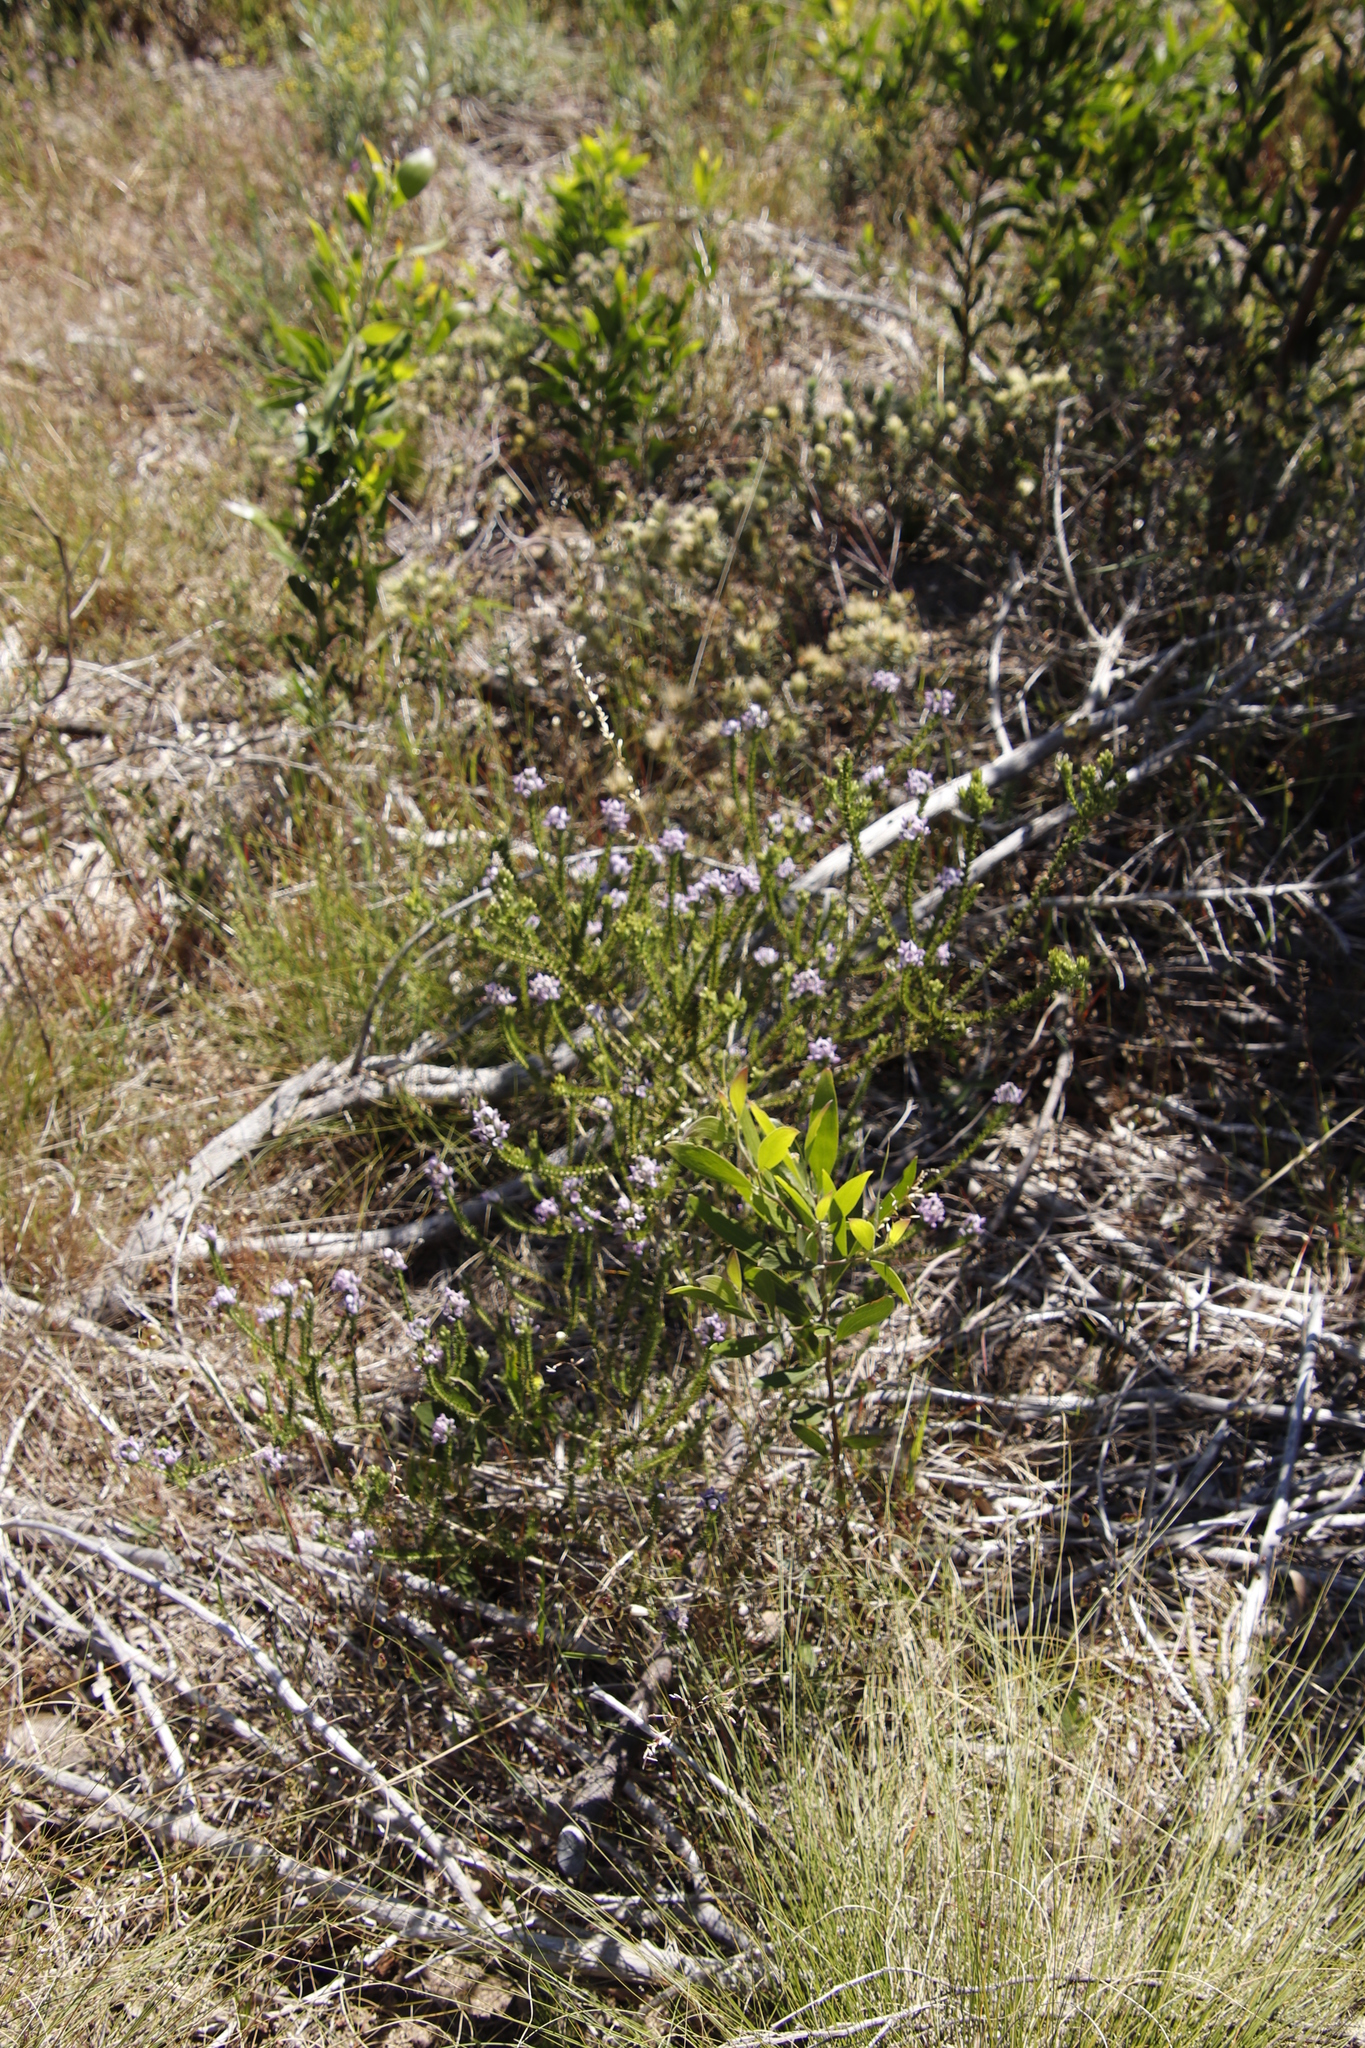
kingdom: Plantae
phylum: Tracheophyta
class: Magnoliopsida
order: Fabales
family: Fabaceae
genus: Aspalathus
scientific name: Aspalathus cephalotes
